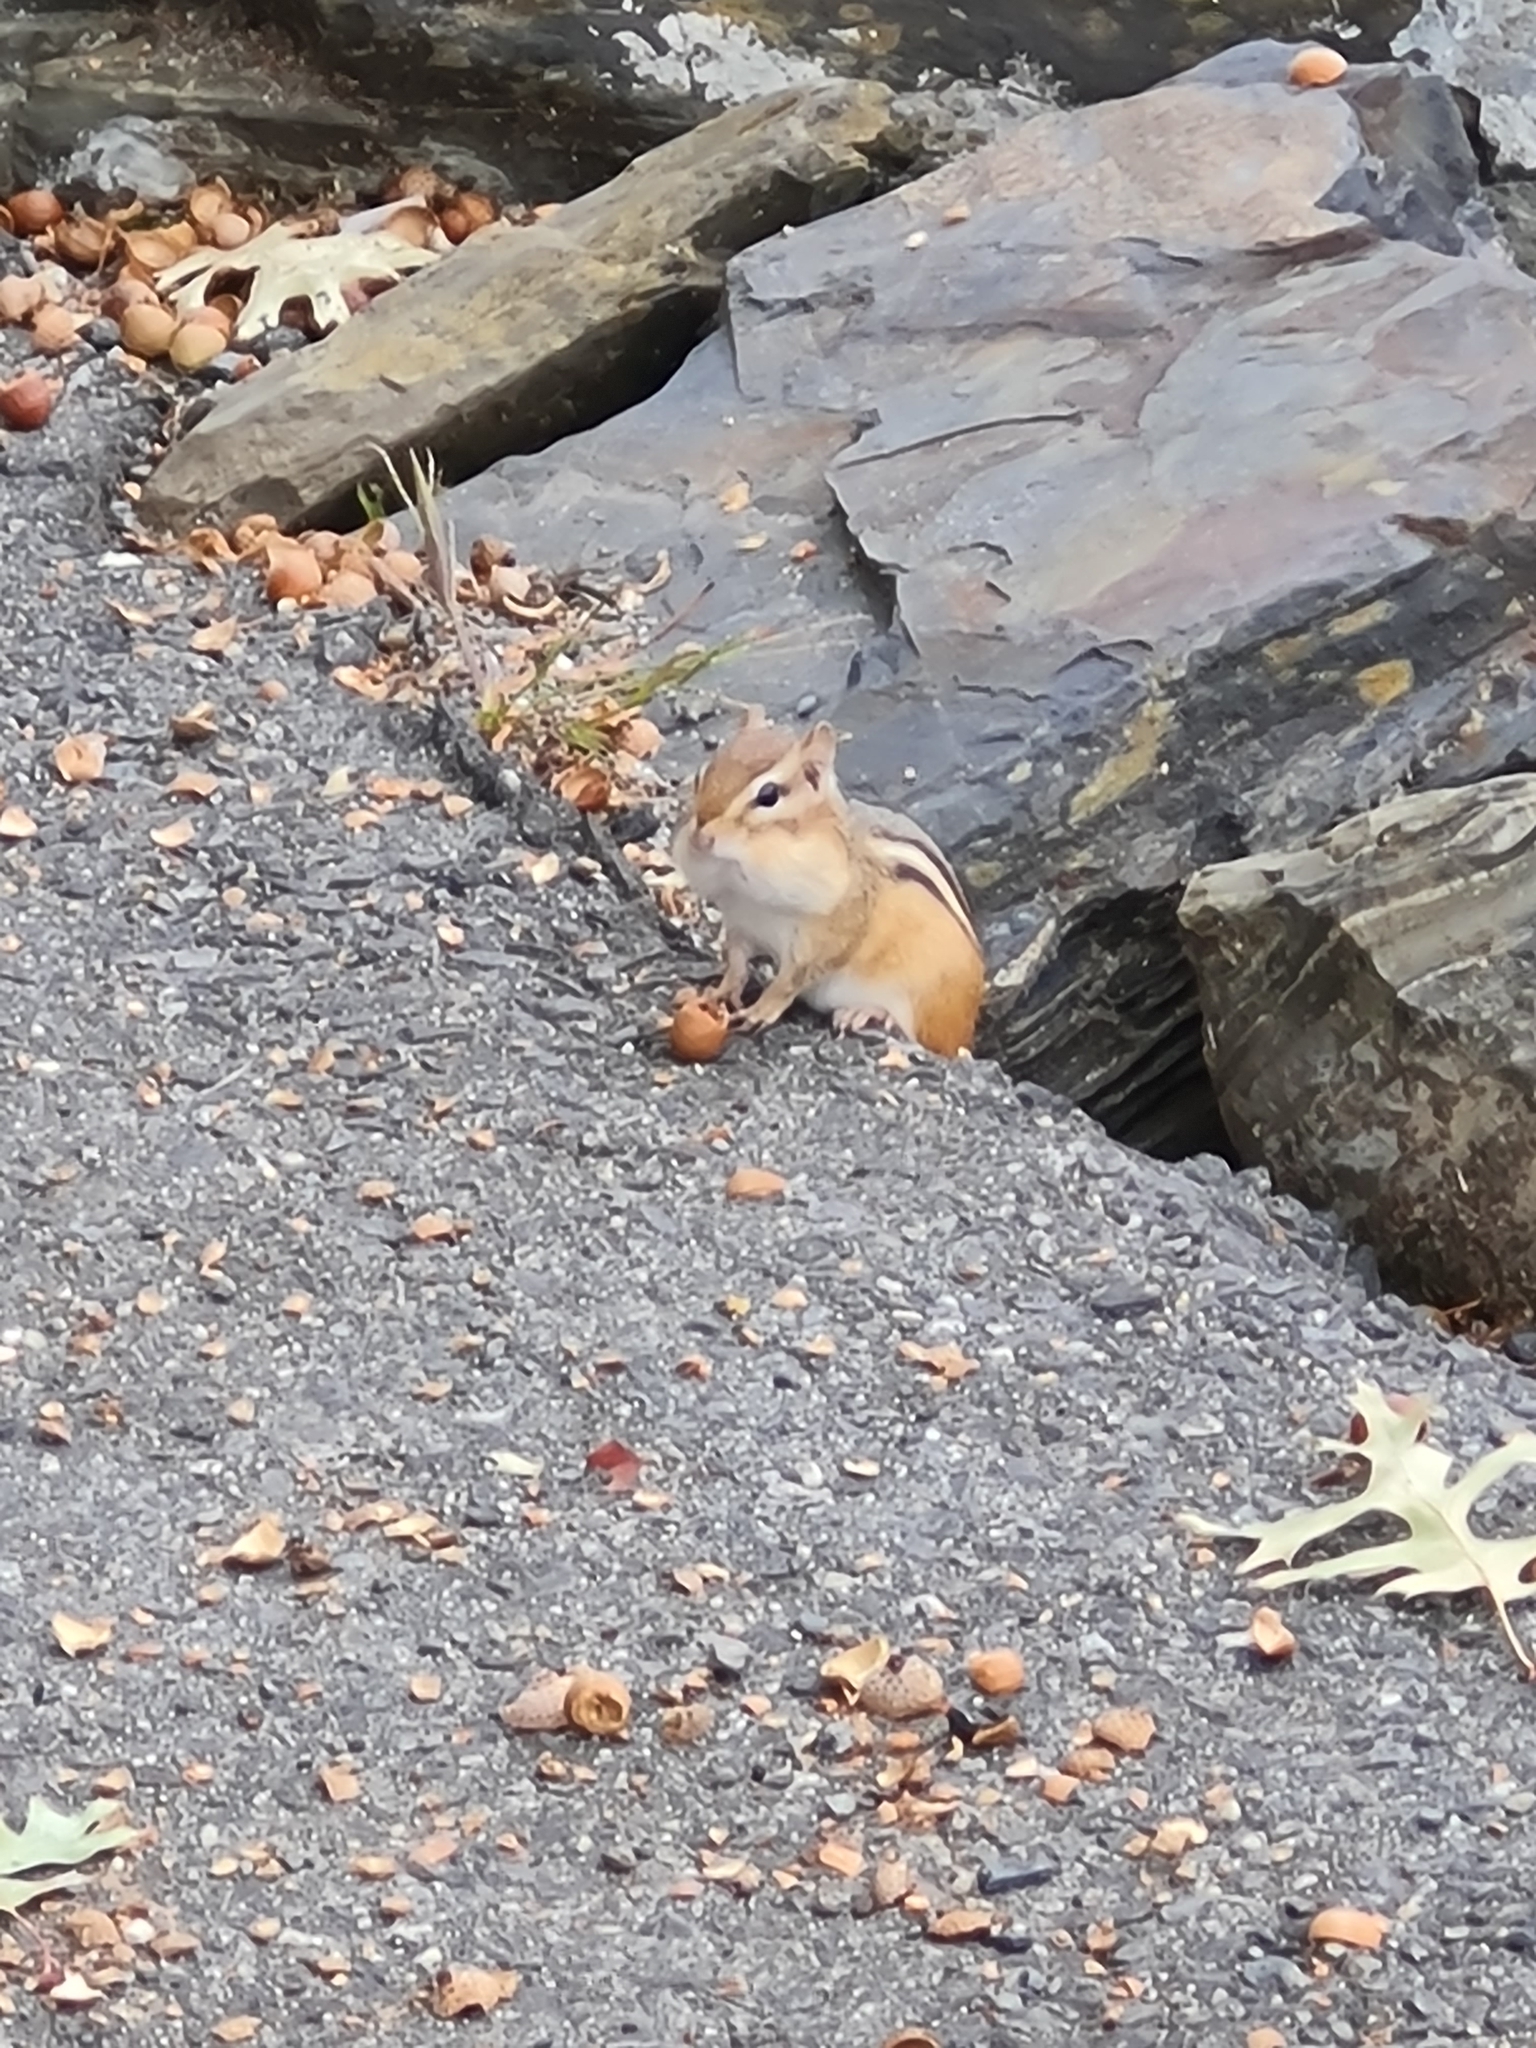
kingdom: Animalia
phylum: Chordata
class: Mammalia
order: Rodentia
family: Sciuridae
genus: Tamias
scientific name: Tamias striatus
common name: Eastern chipmunk
